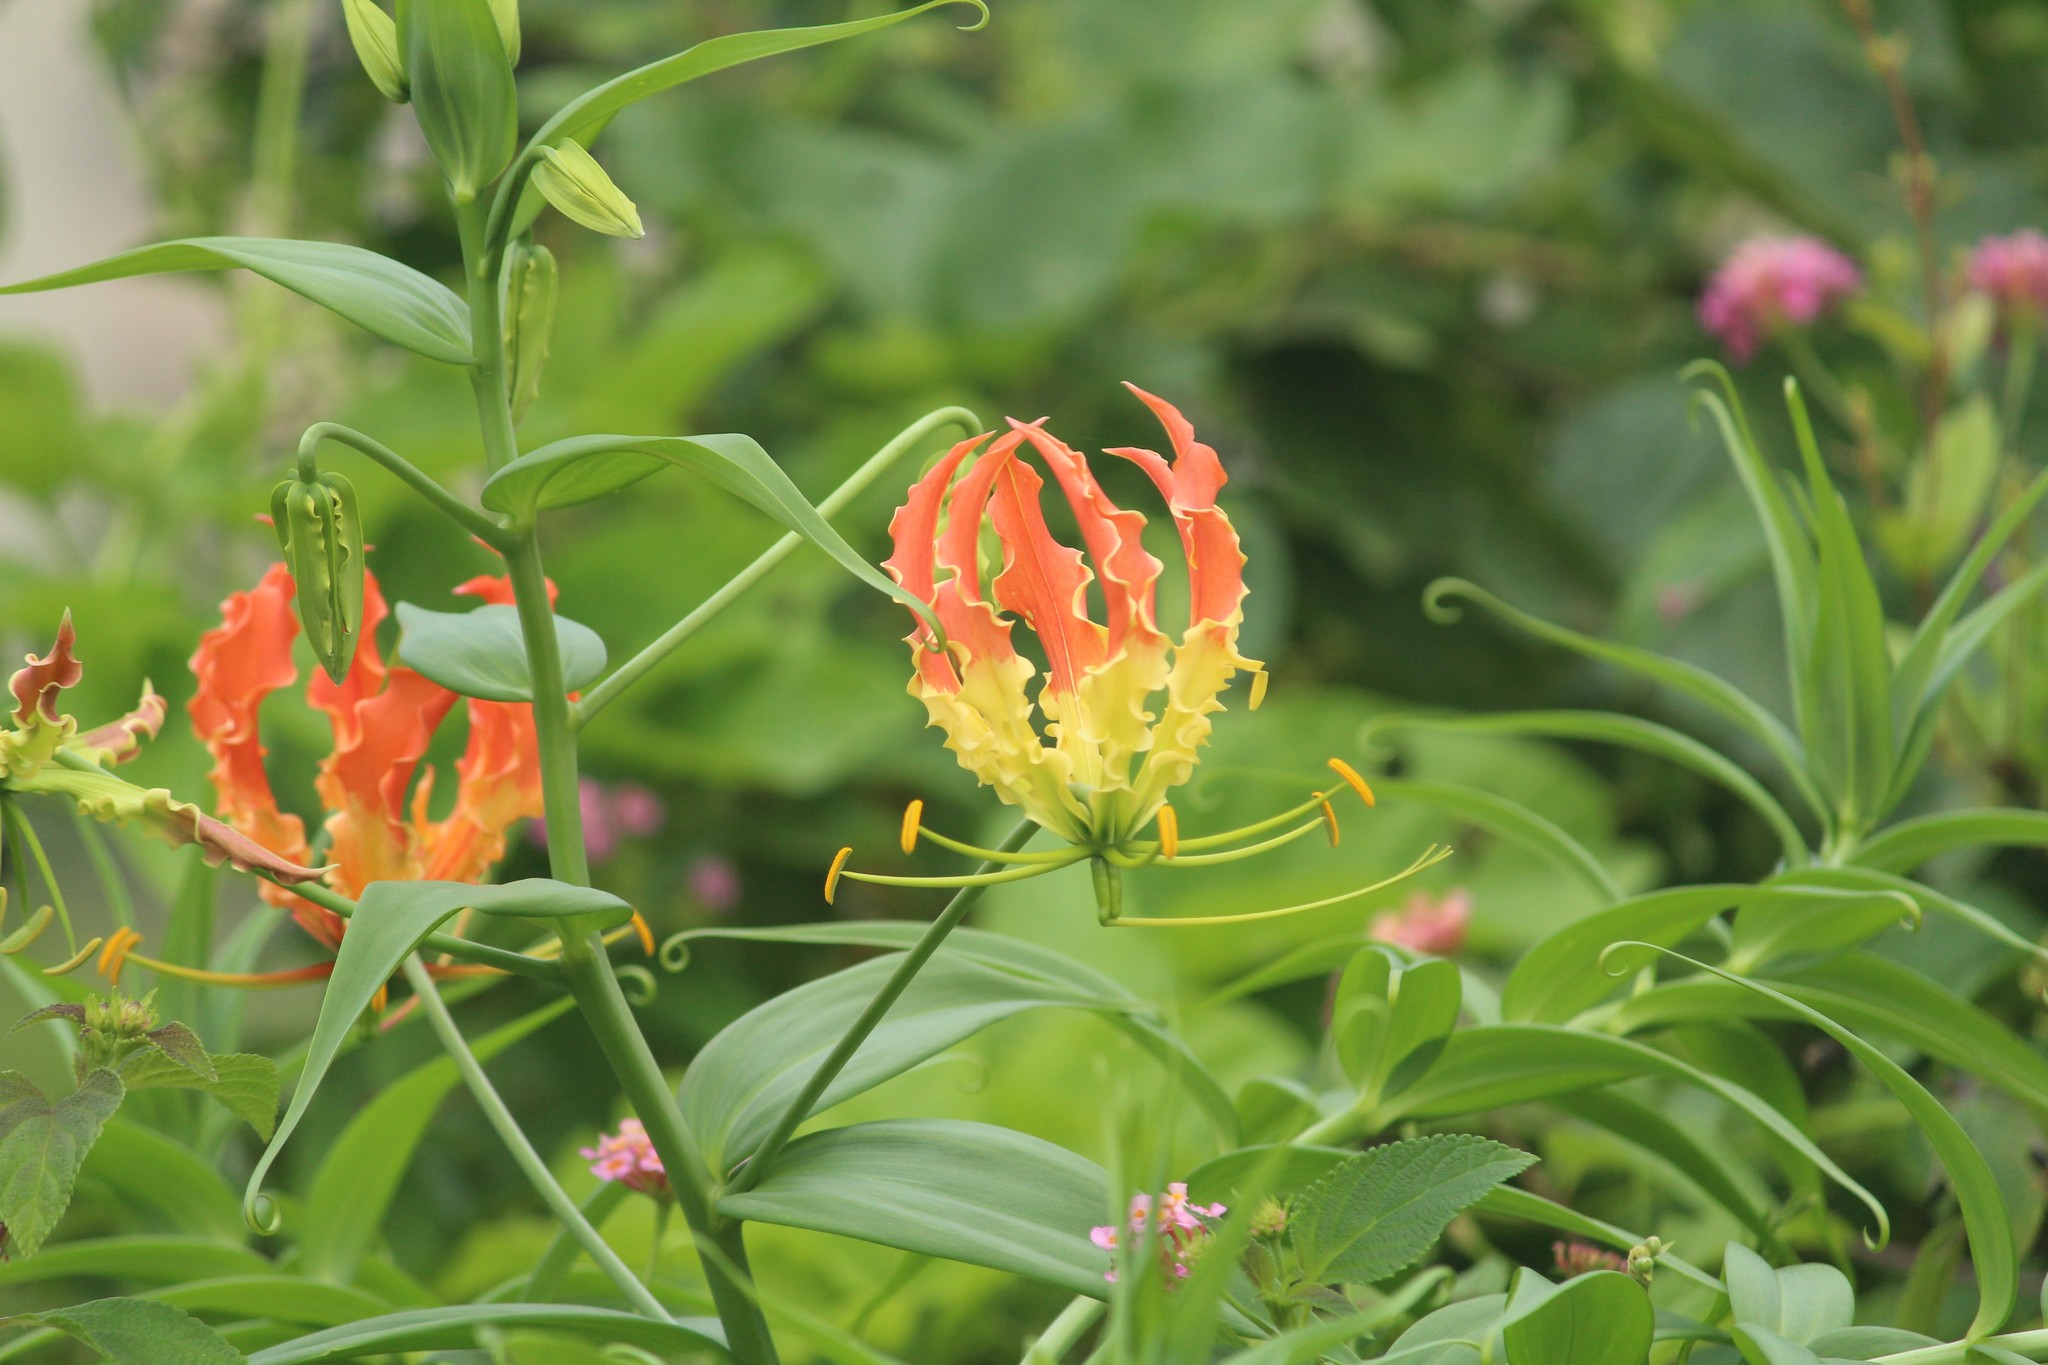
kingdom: Plantae
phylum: Tracheophyta
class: Liliopsida
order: Liliales
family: Colchicaceae
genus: Gloriosa
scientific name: Gloriosa superba
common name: Flame lily
